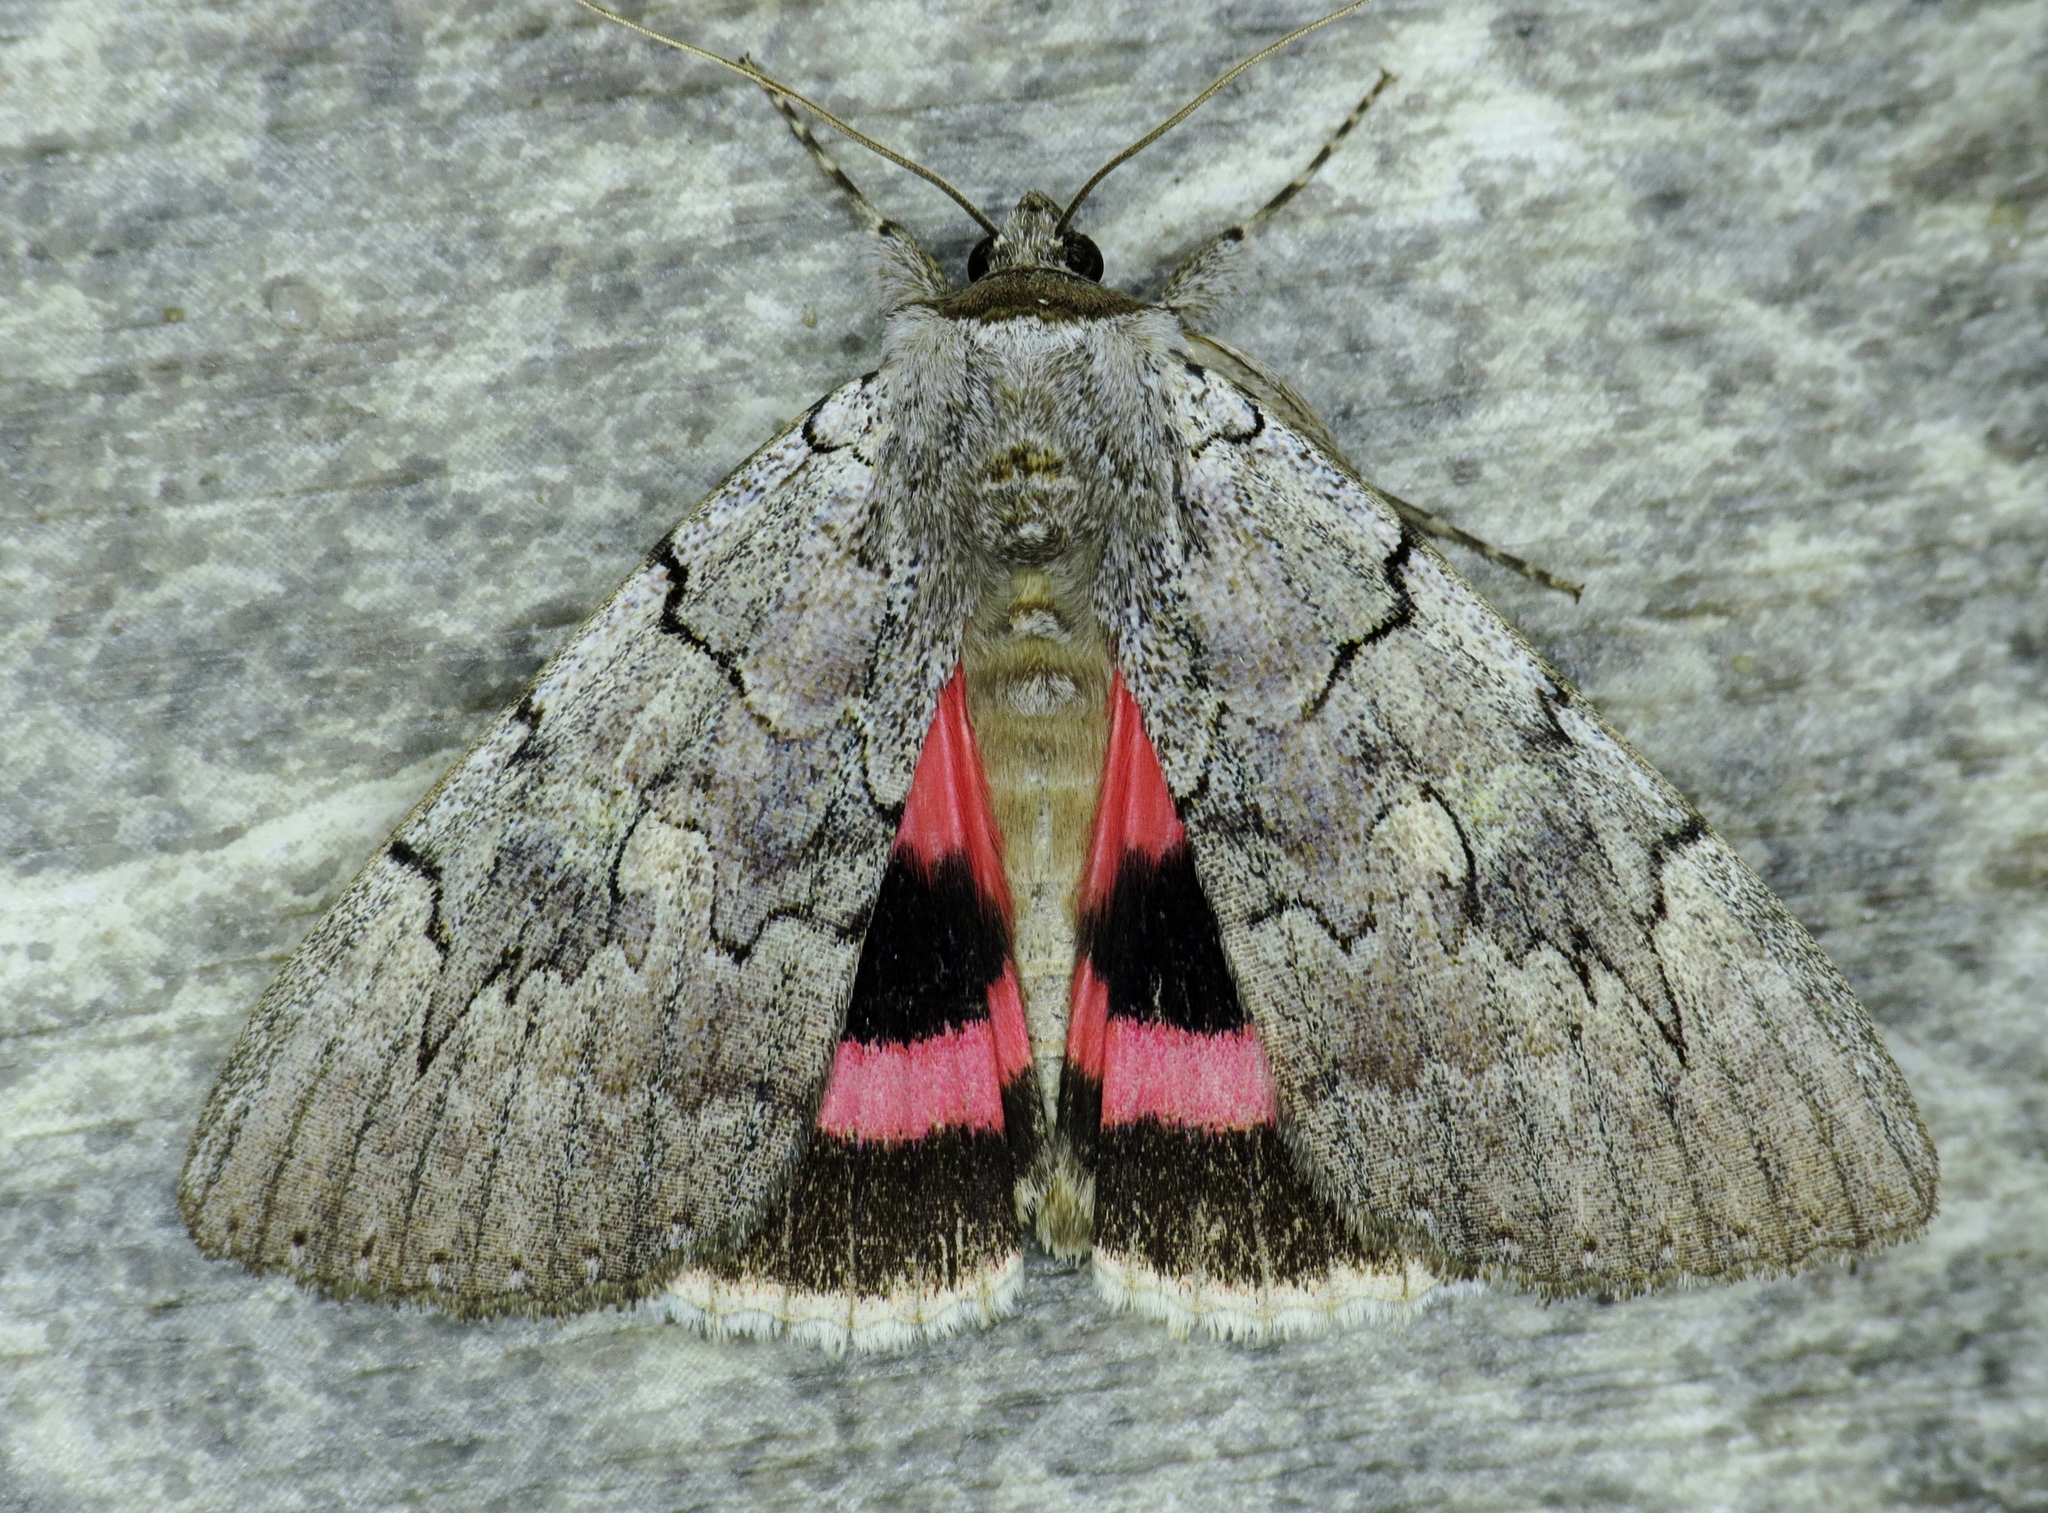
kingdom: Animalia
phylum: Arthropoda
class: Insecta
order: Lepidoptera
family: Erebidae
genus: Catocala
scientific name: Catocala concumbens
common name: Pink underwing
